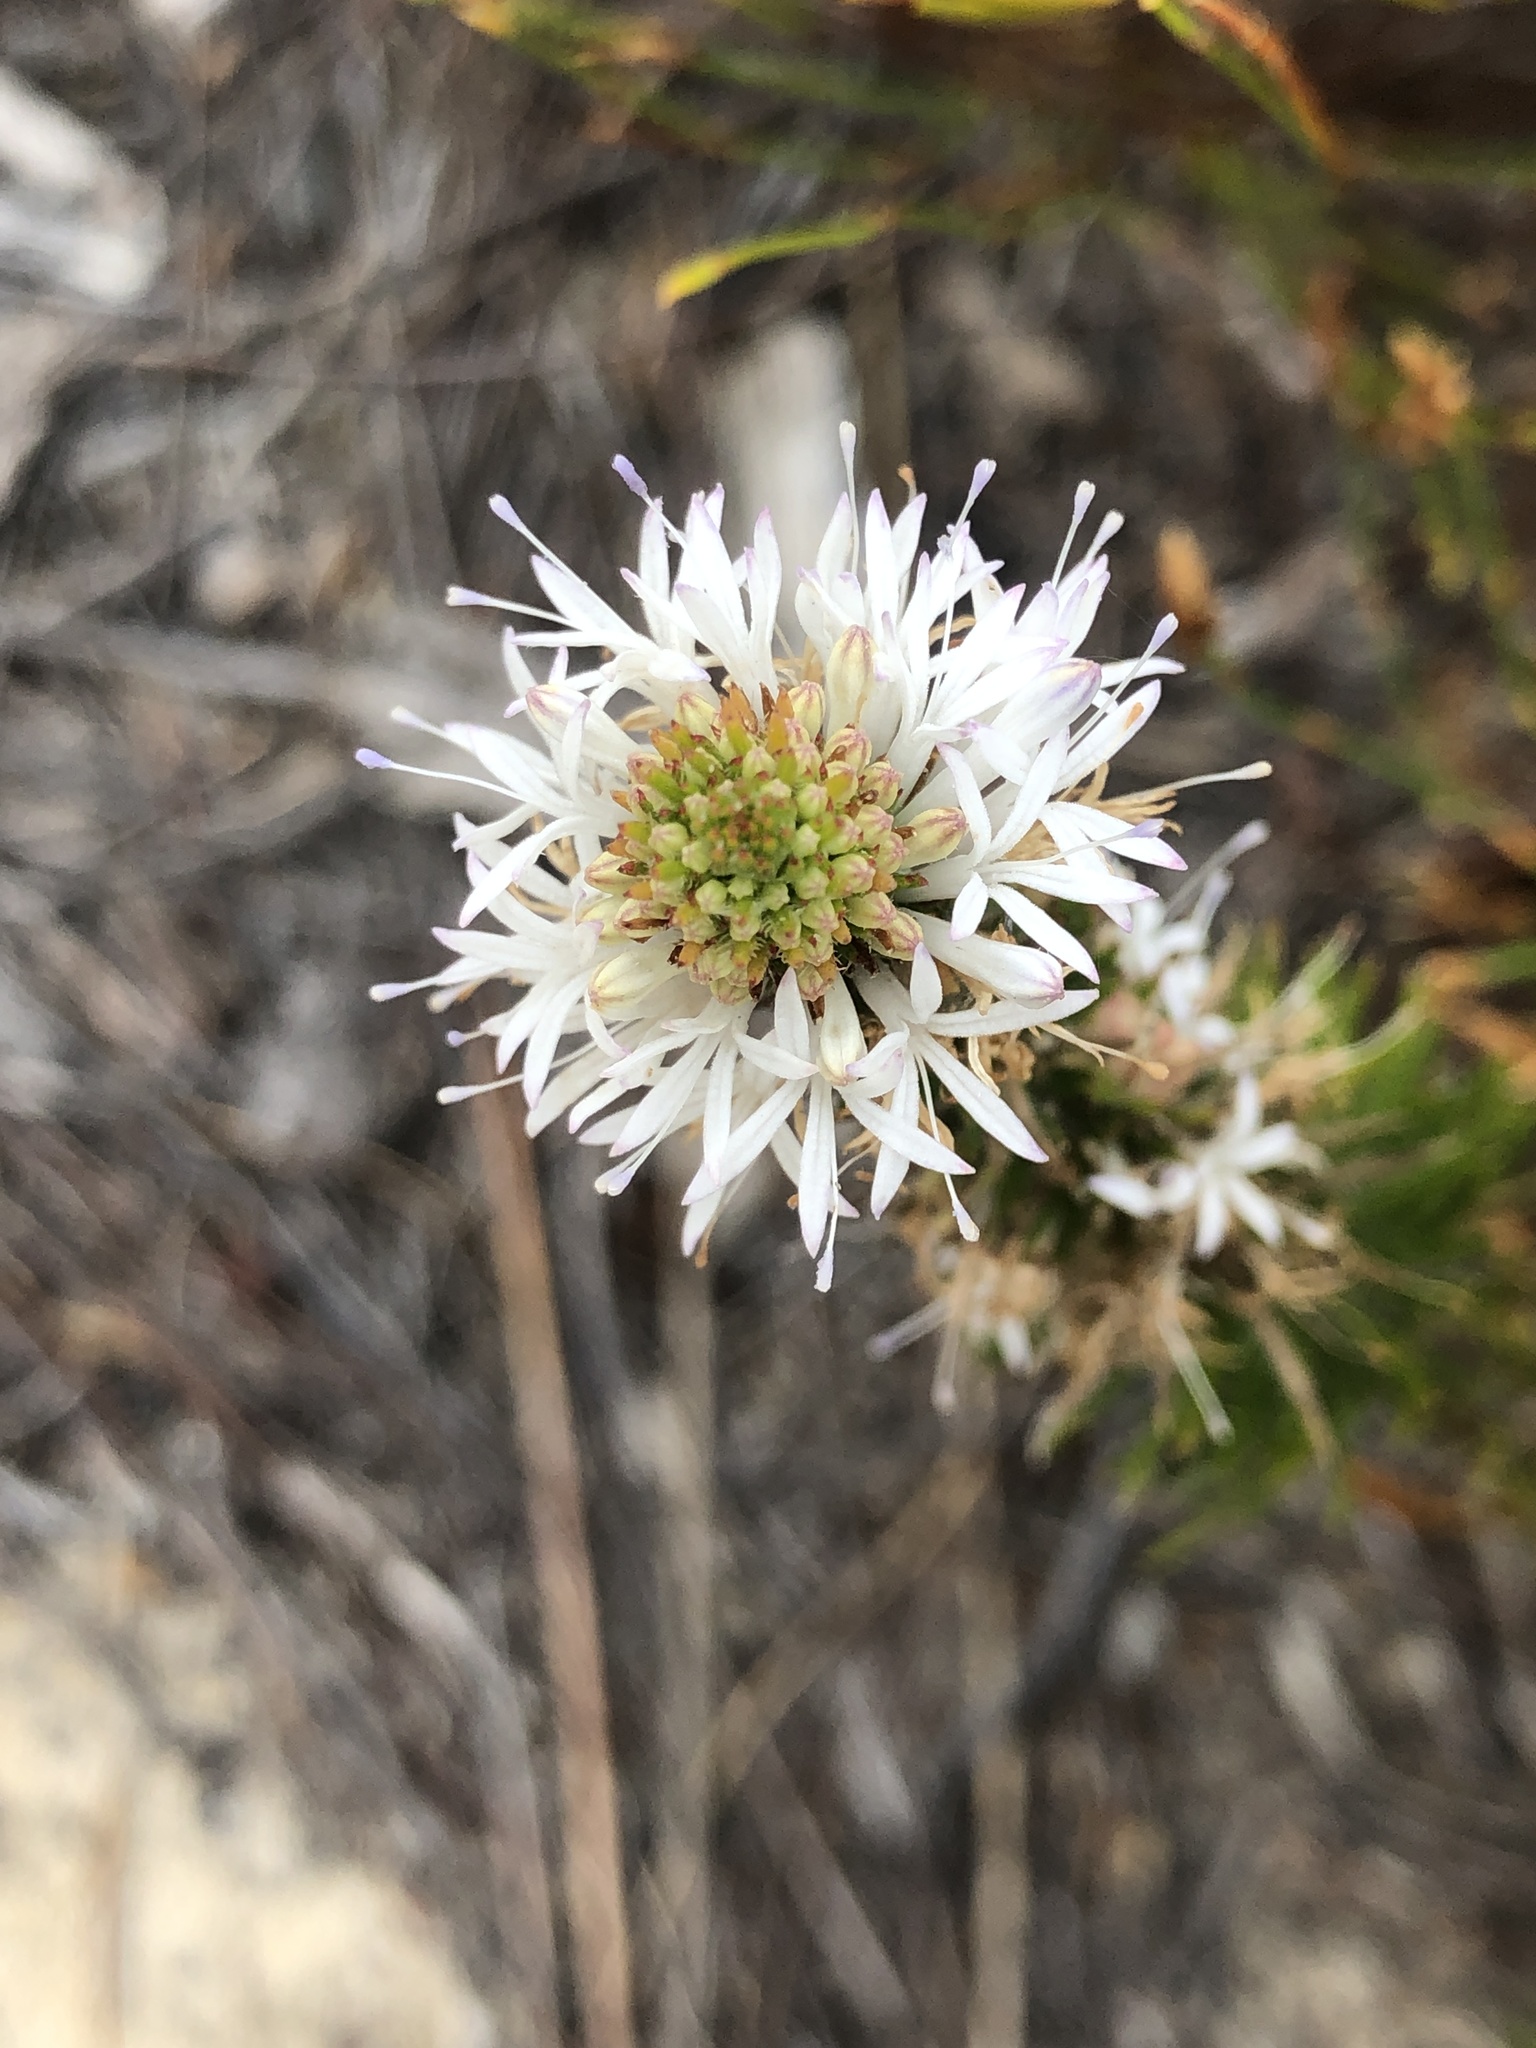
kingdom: Plantae
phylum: Tracheophyta
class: Magnoliopsida
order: Asterales
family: Campanulaceae
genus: Merciera
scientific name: Merciera leptoloba
